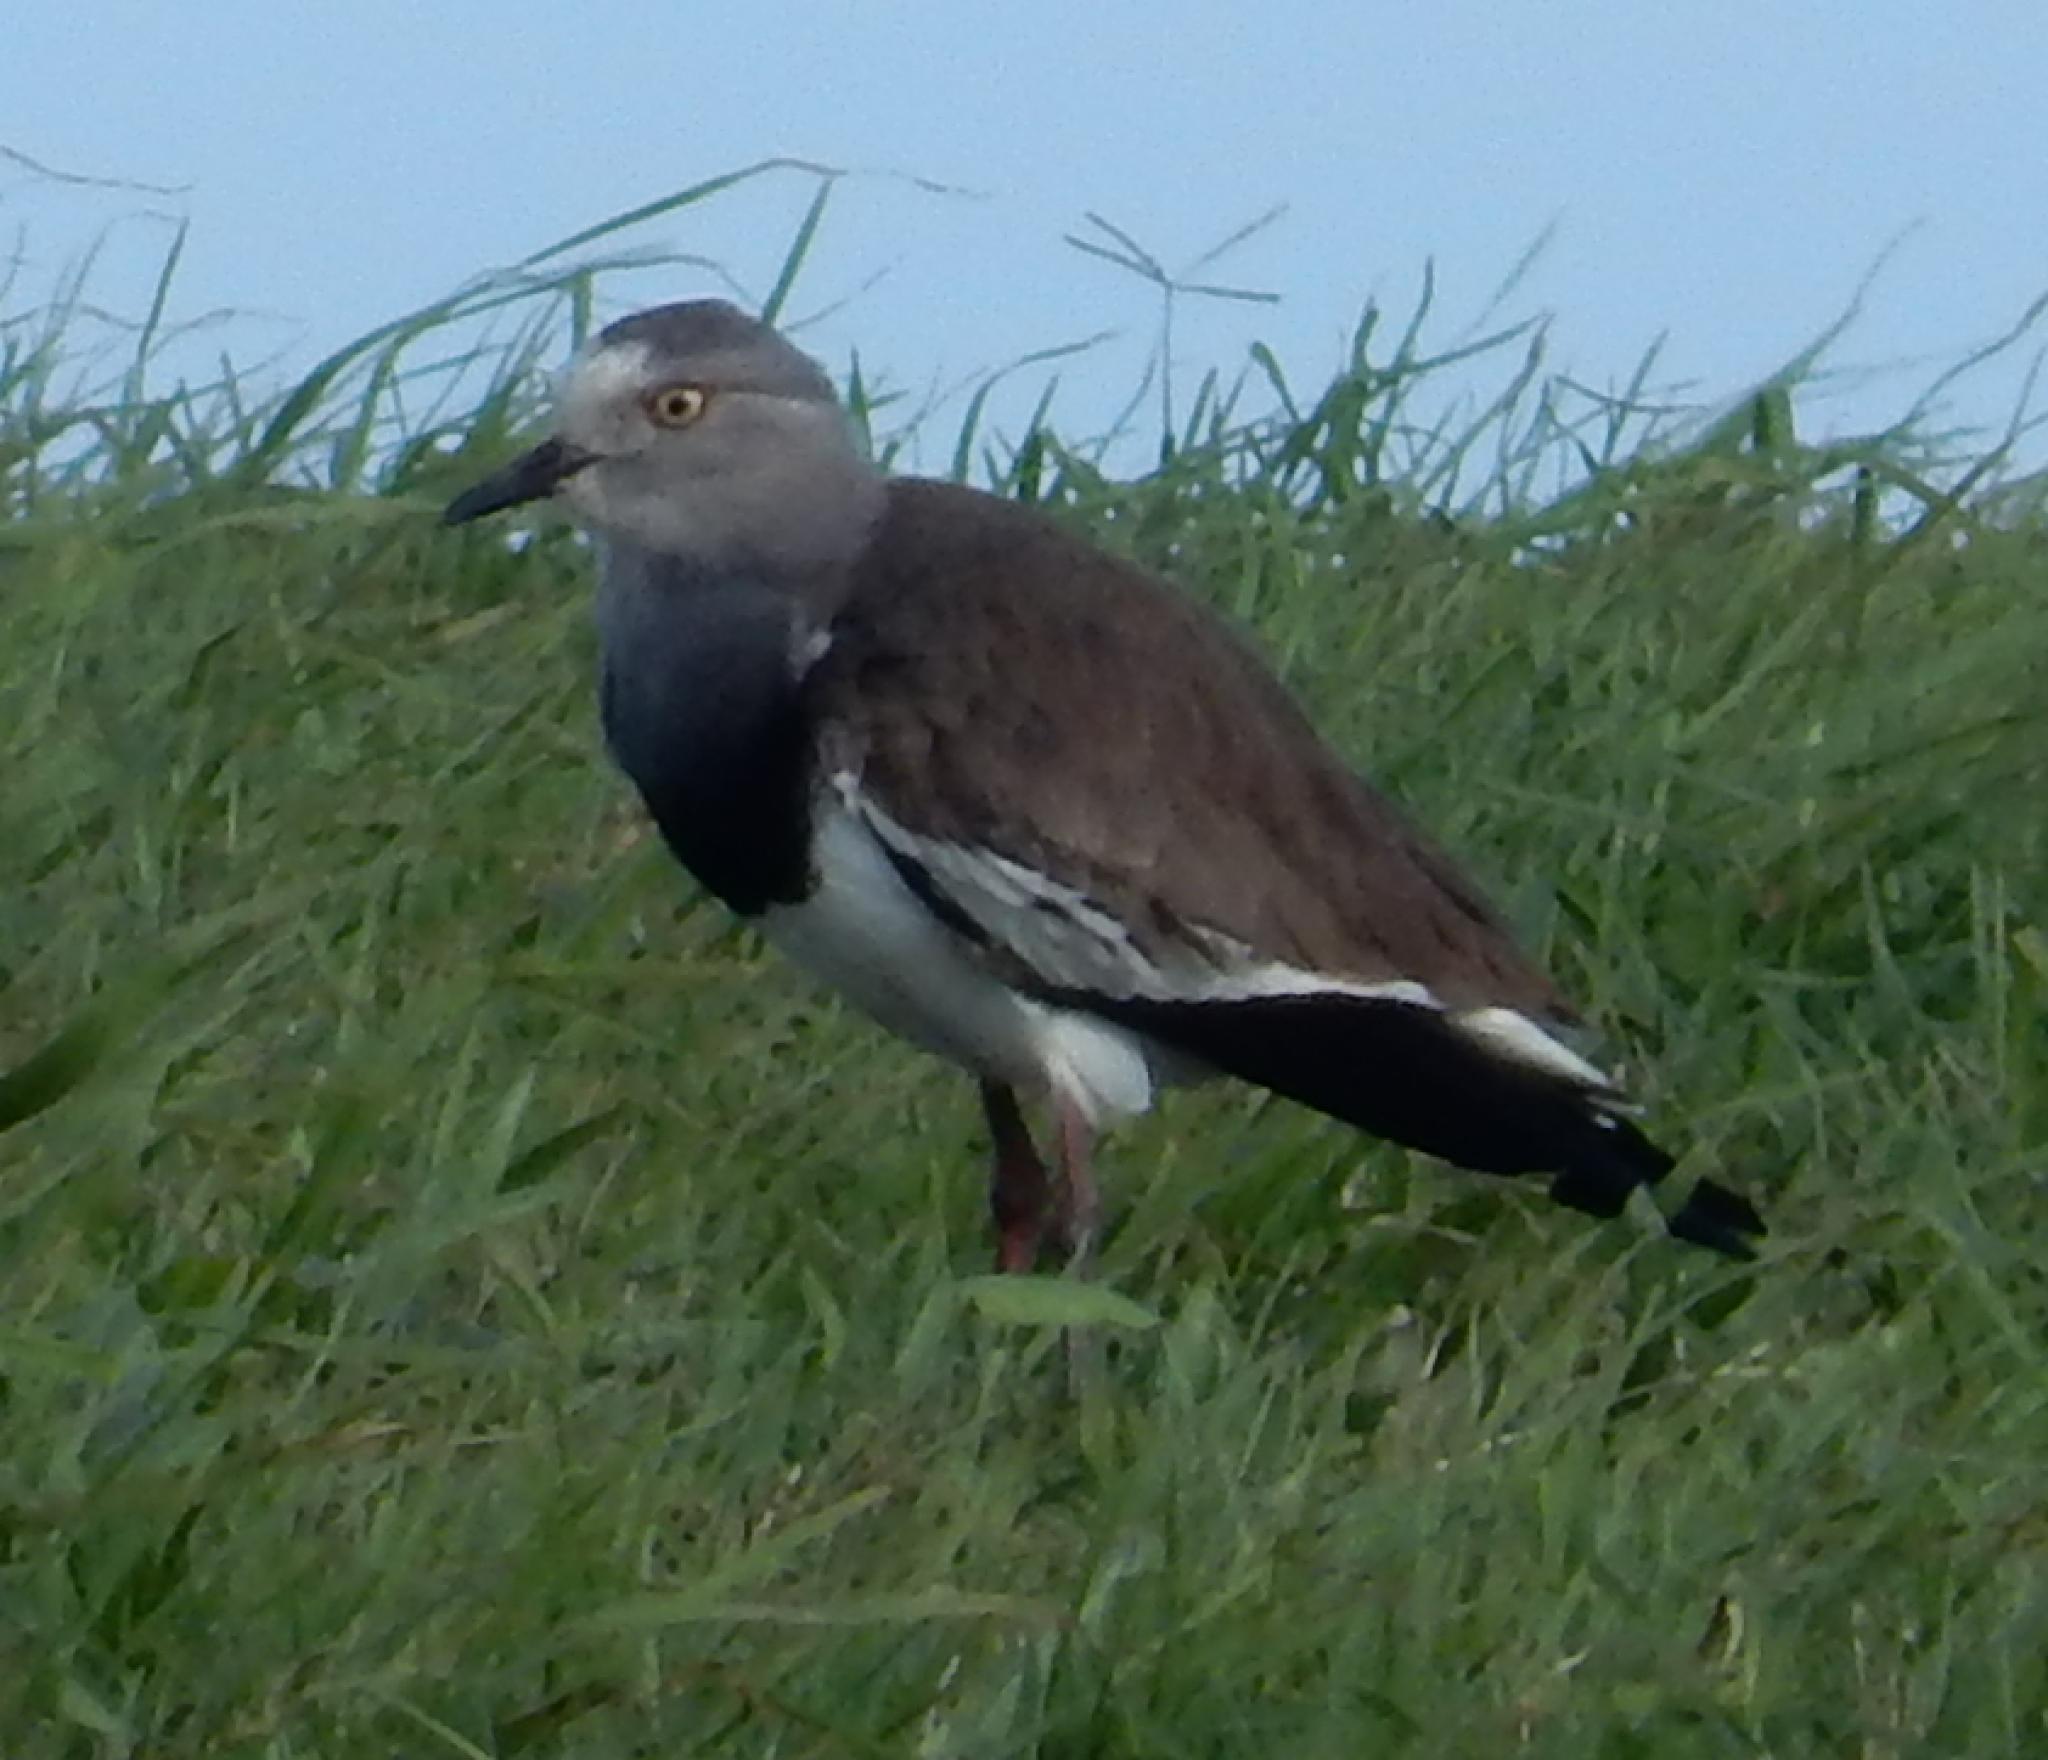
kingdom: Animalia
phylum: Chordata
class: Aves
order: Charadriiformes
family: Charadriidae
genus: Vanellus
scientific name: Vanellus melanopterus
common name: Black-winged lapwing
